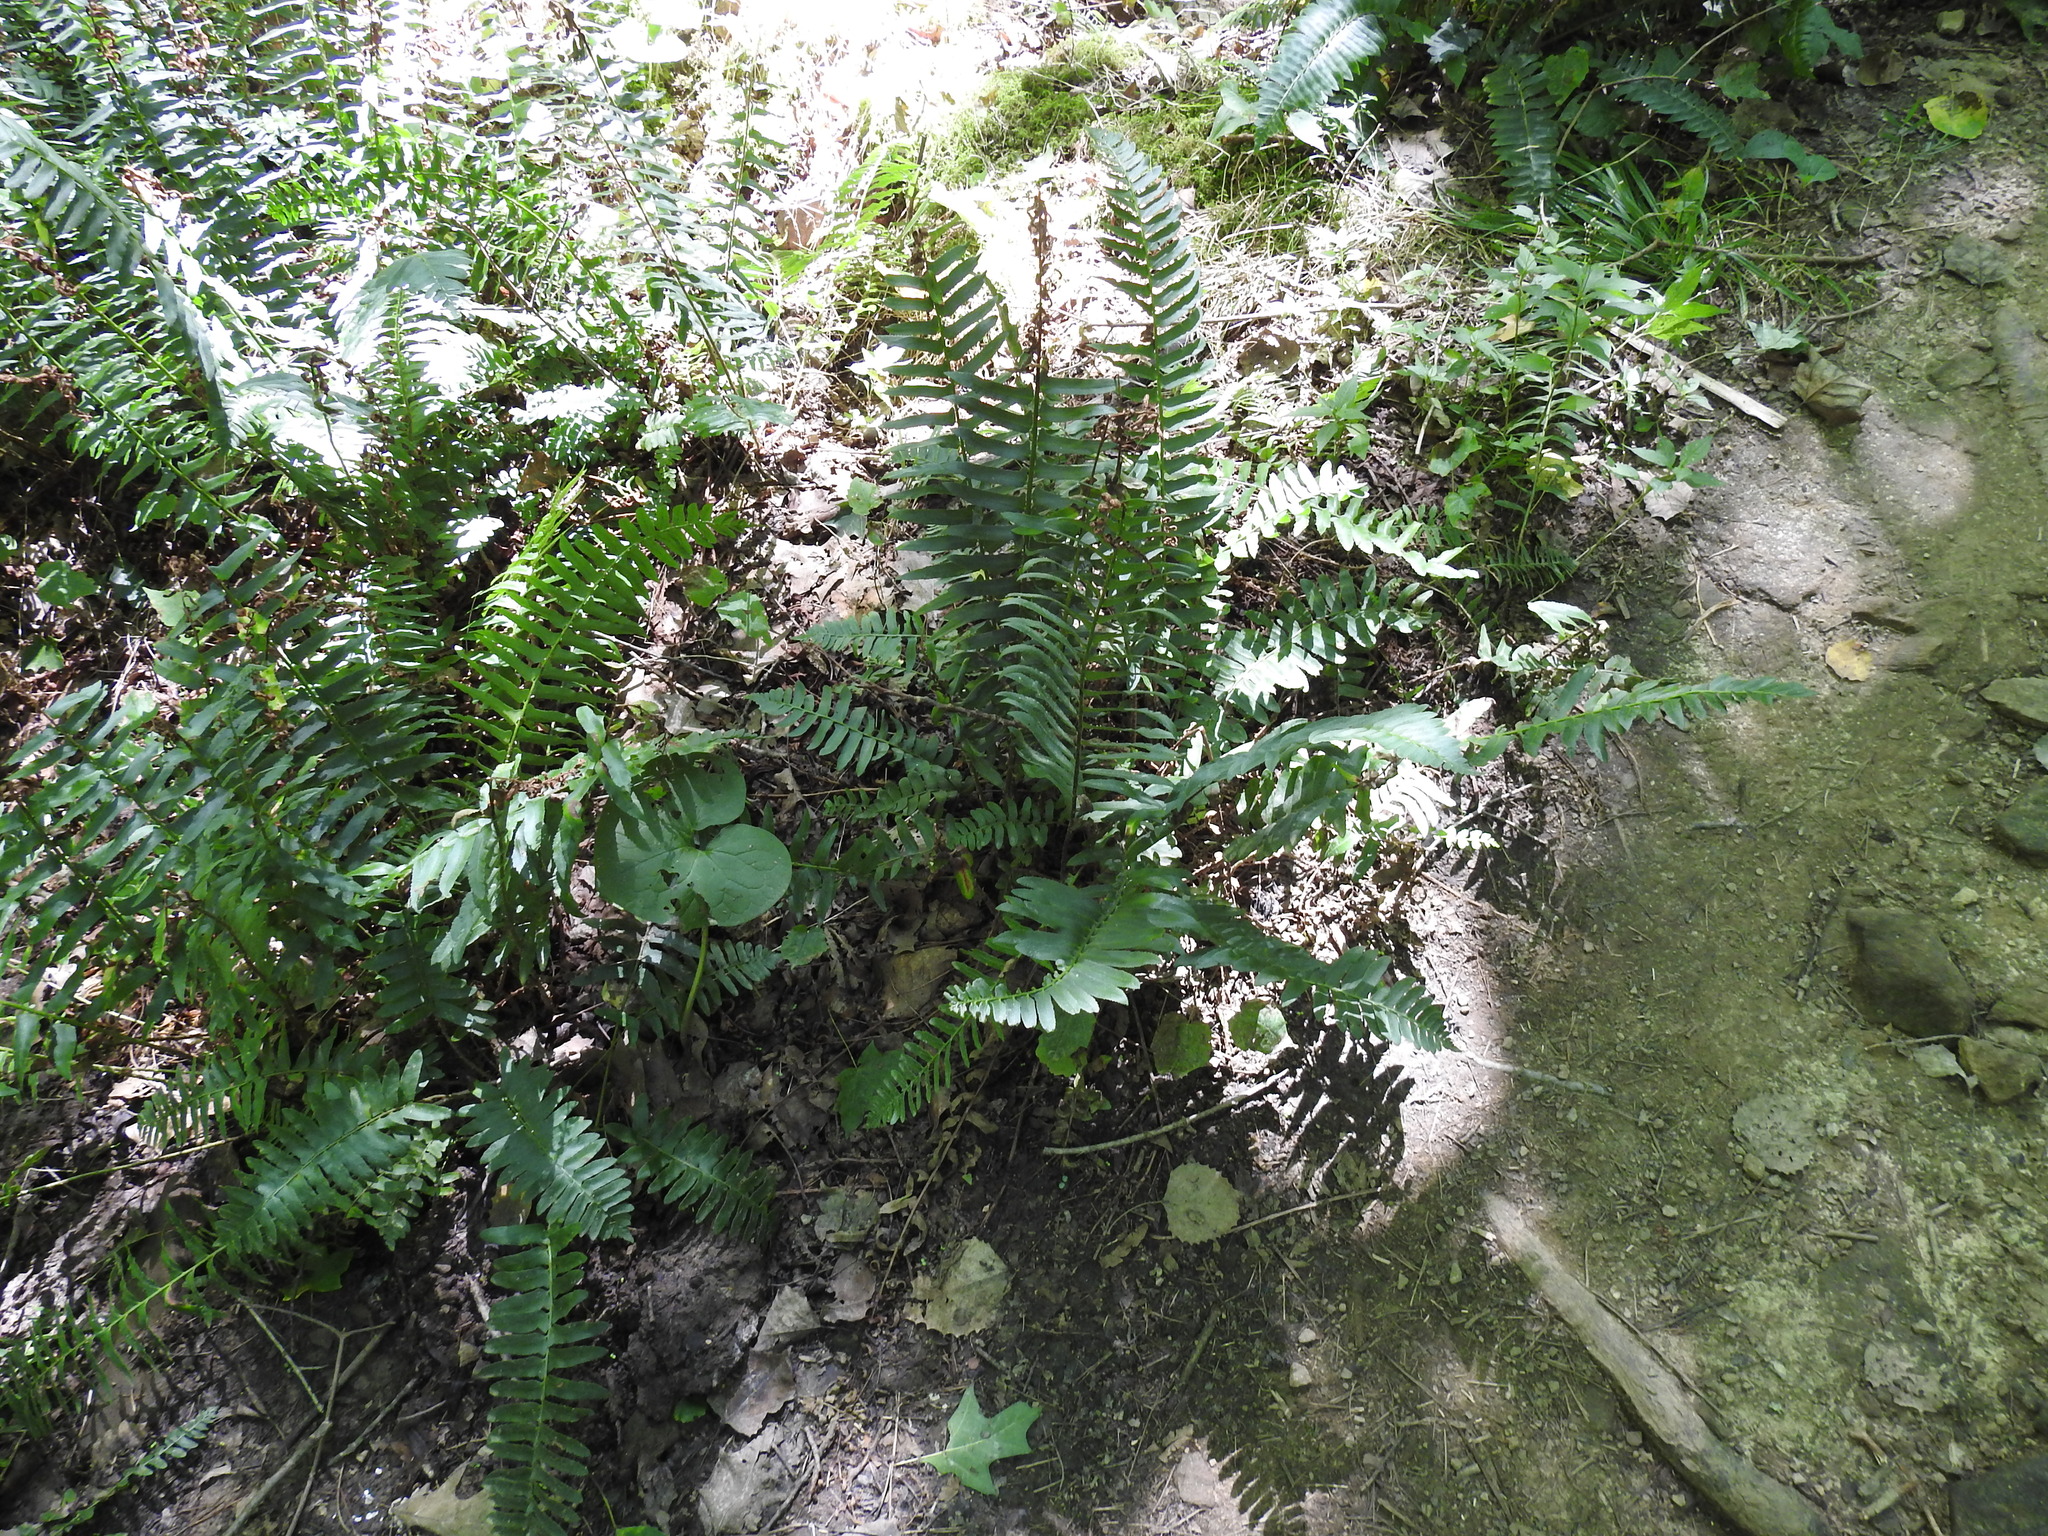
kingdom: Plantae
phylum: Tracheophyta
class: Polypodiopsida
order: Polypodiales
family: Dryopteridaceae
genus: Polystichum
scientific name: Polystichum acrostichoides
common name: Christmas fern
